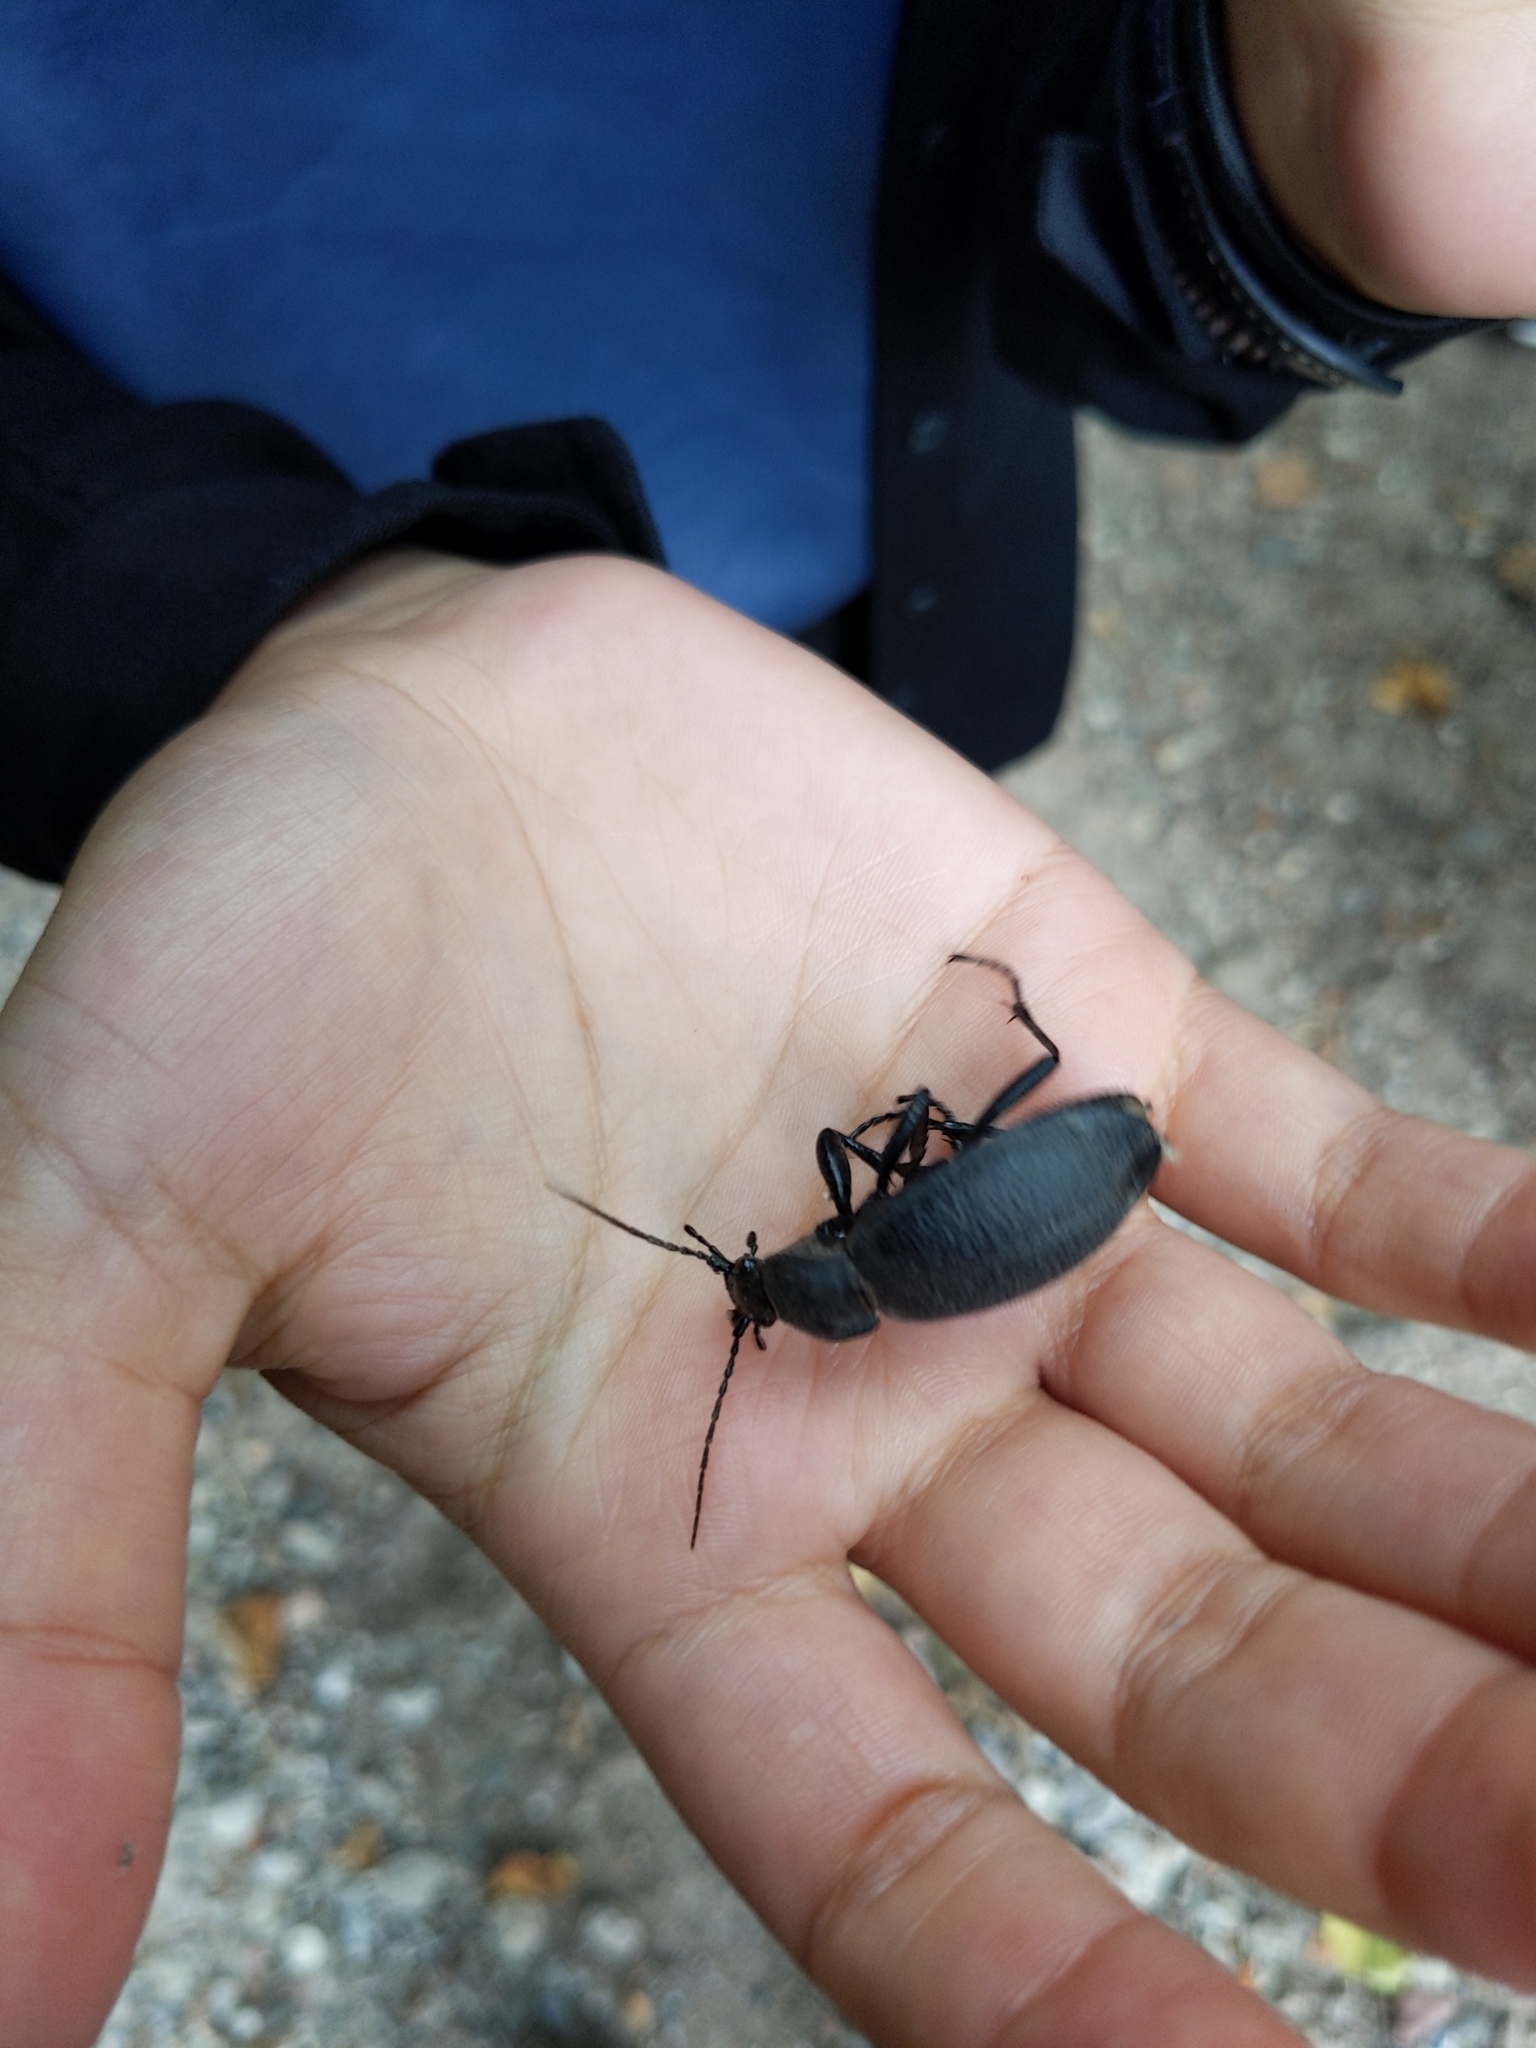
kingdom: Animalia
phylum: Arthropoda
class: Insecta
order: Coleoptera
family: Carabidae
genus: Carabus
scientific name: Carabus coriaceus
